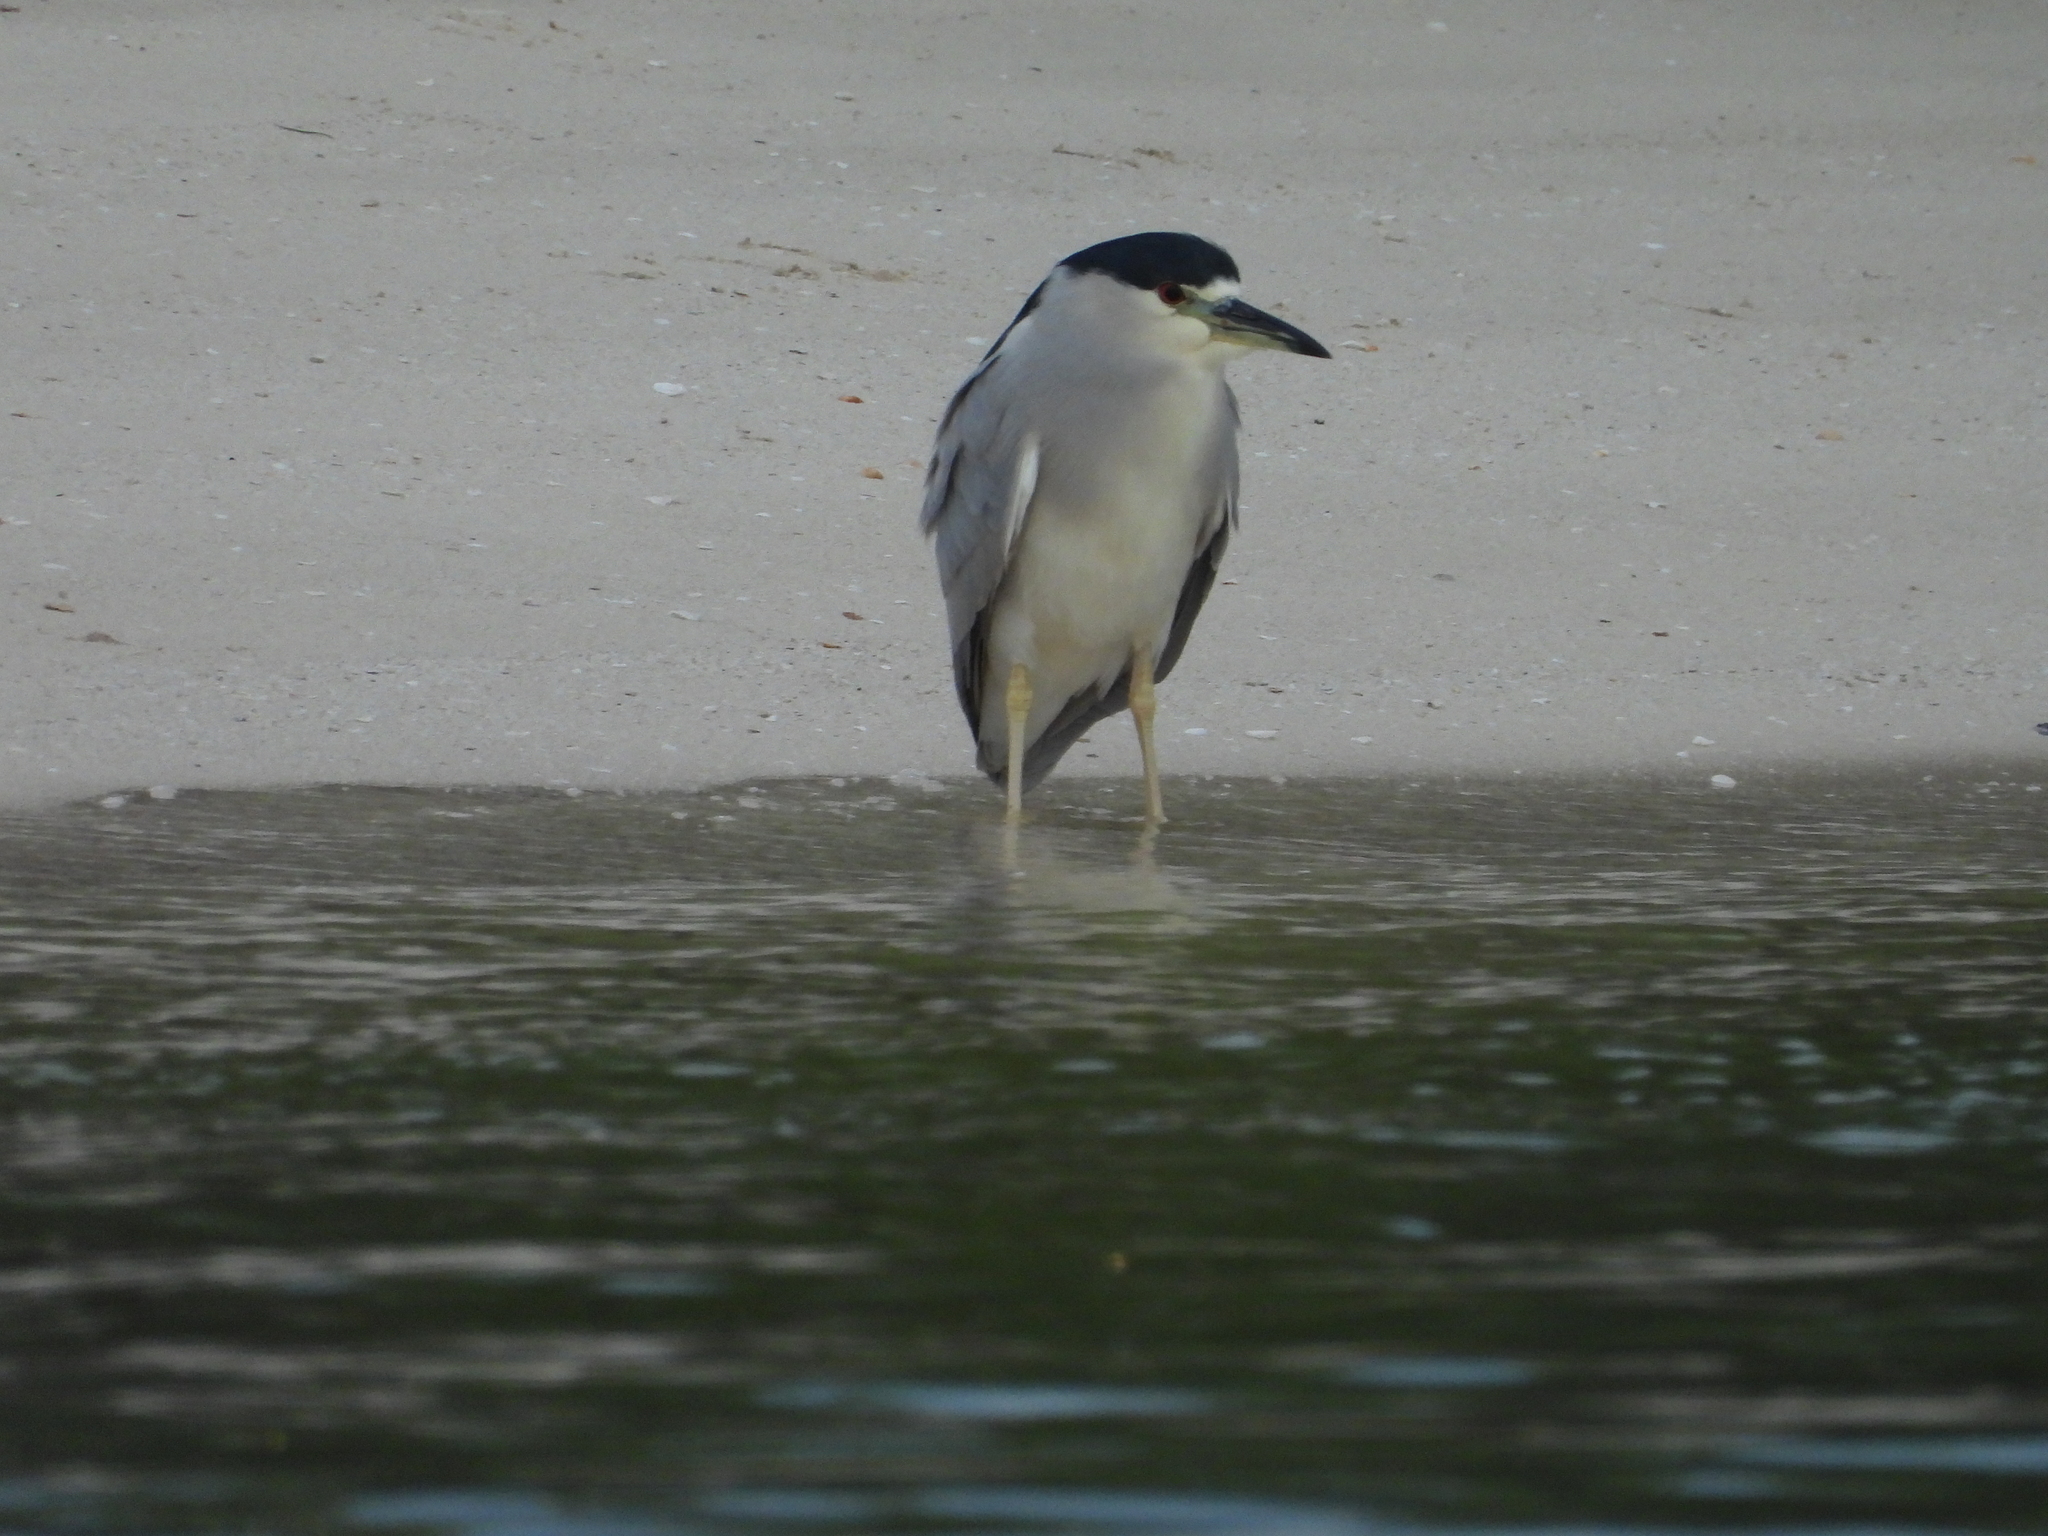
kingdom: Animalia
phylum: Chordata
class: Aves
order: Pelecaniformes
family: Ardeidae
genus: Nycticorax
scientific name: Nycticorax nycticorax
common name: Black-crowned night heron
